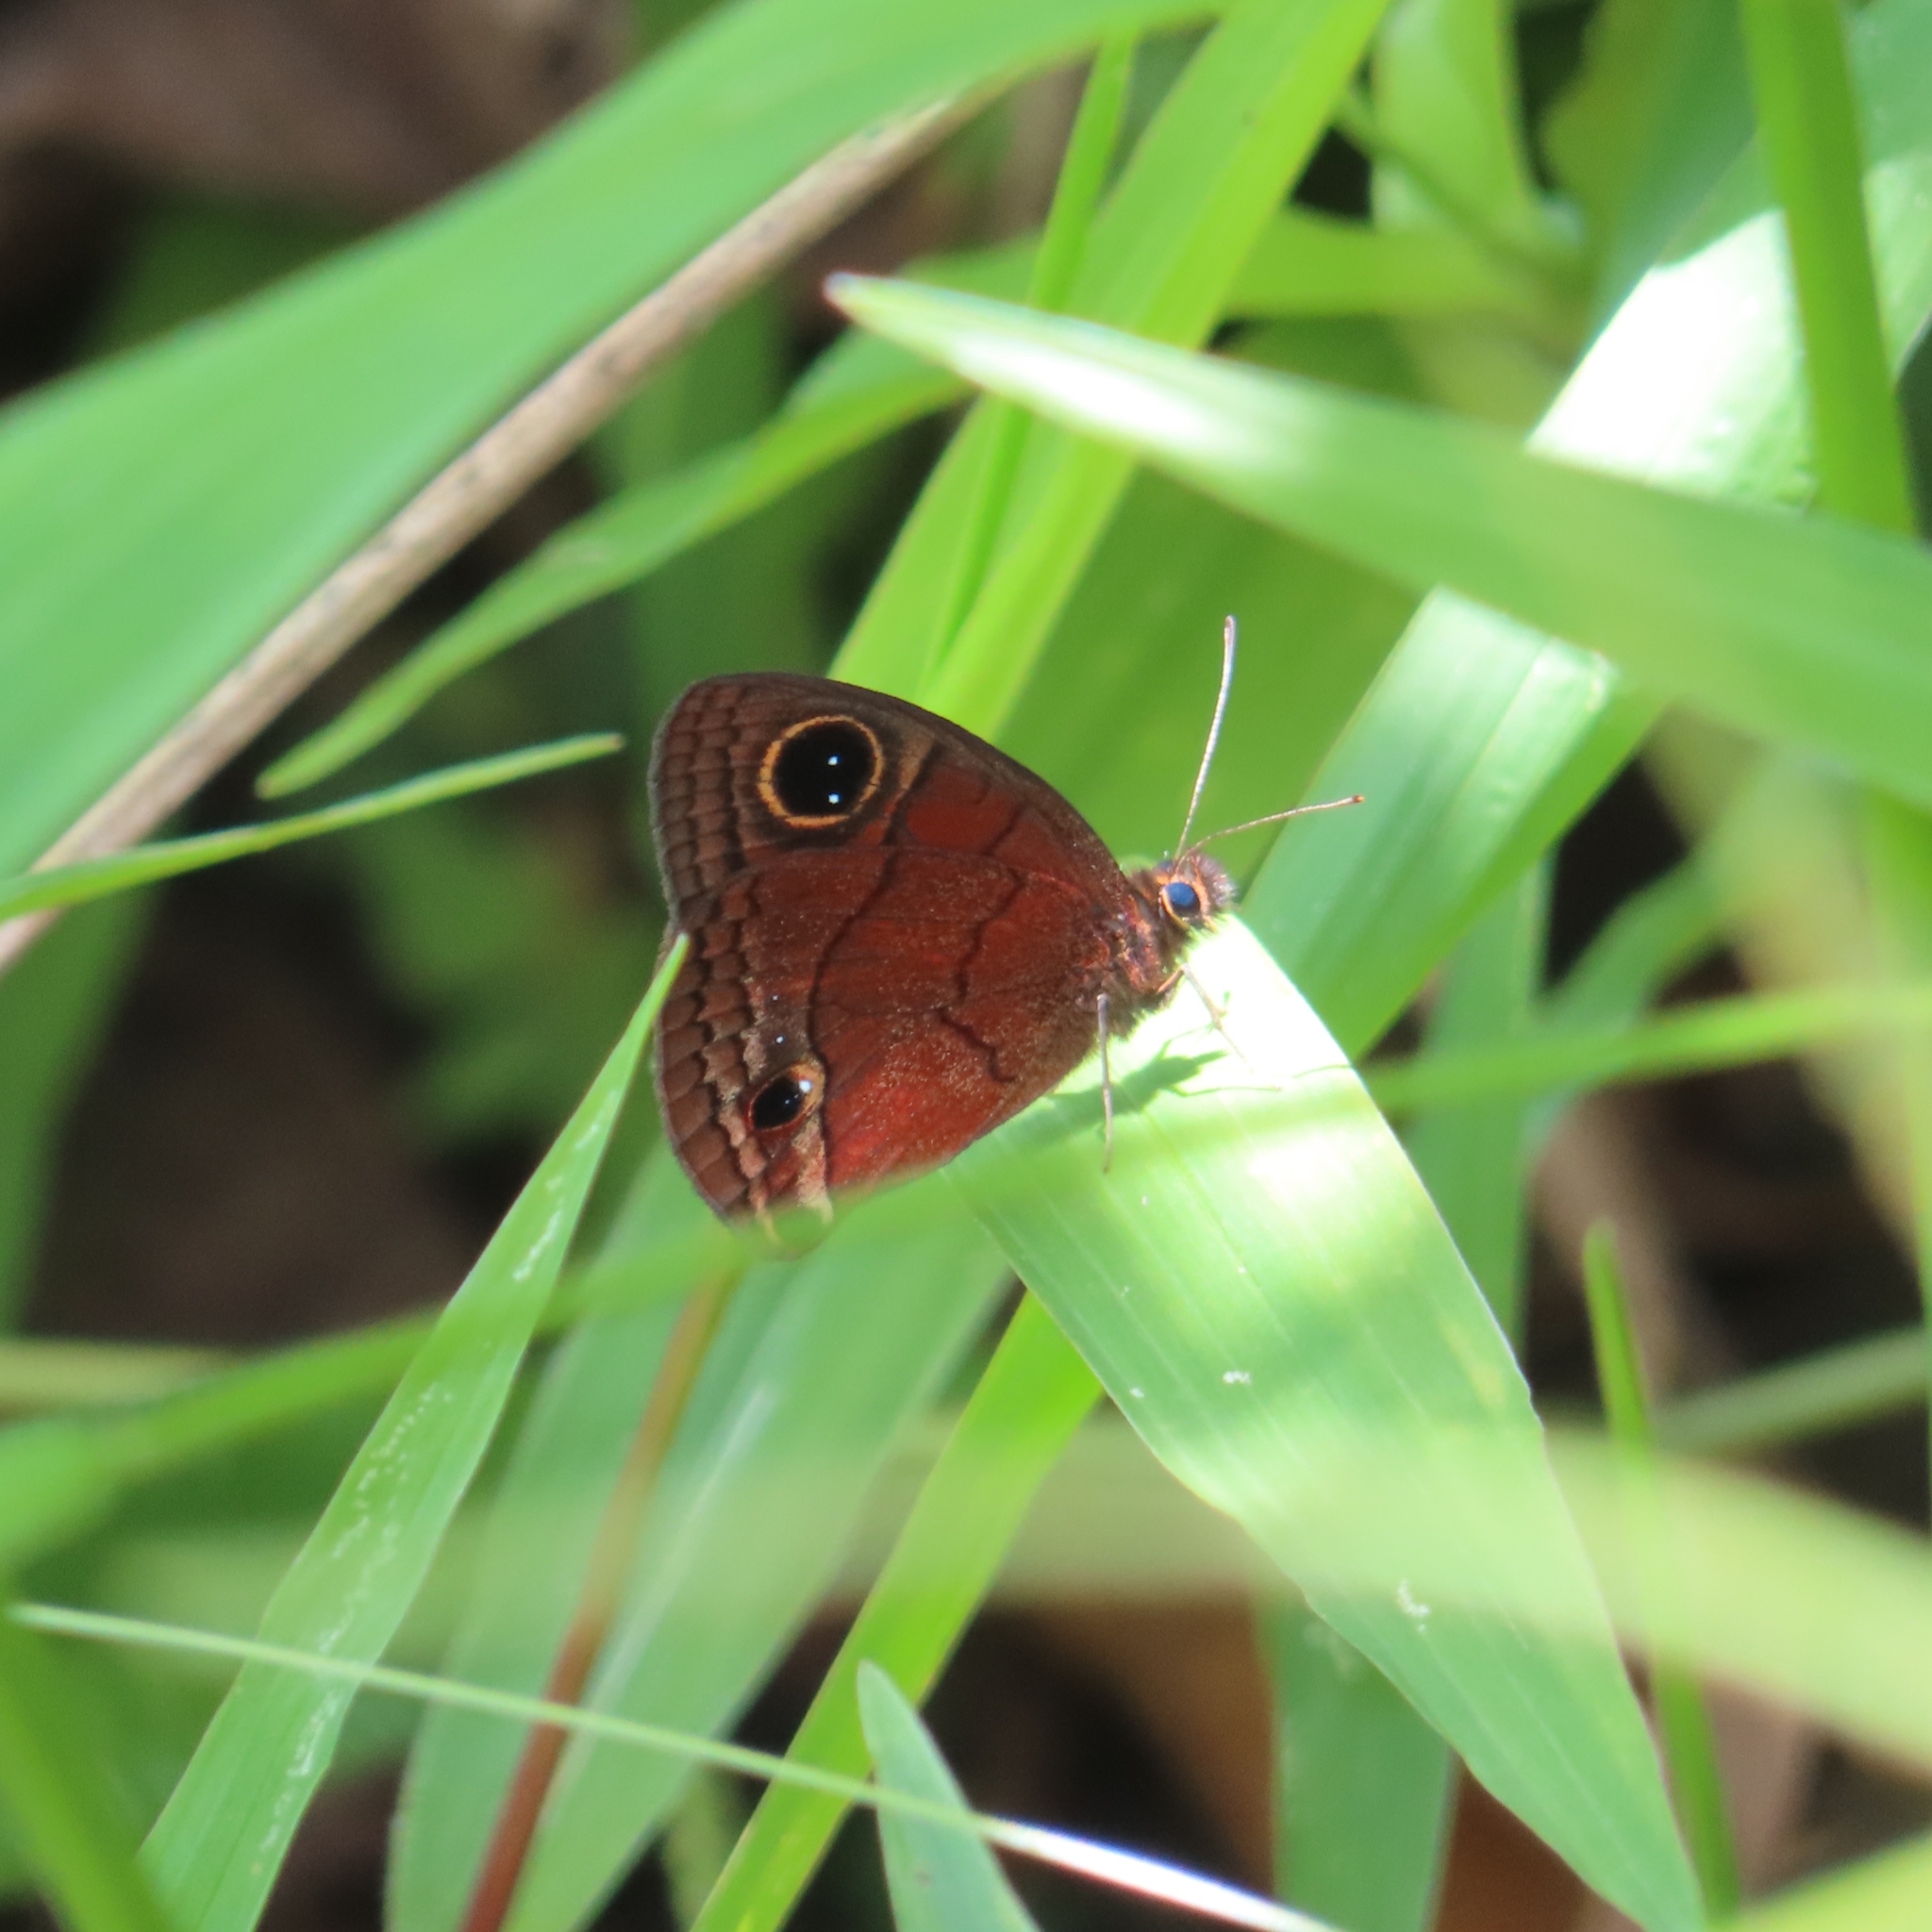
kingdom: Animalia
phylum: Arthropoda
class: Insecta
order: Lepidoptera
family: Nymphalidae
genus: Calisto
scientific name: Calisto nubila
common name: Puerto rican calisto
